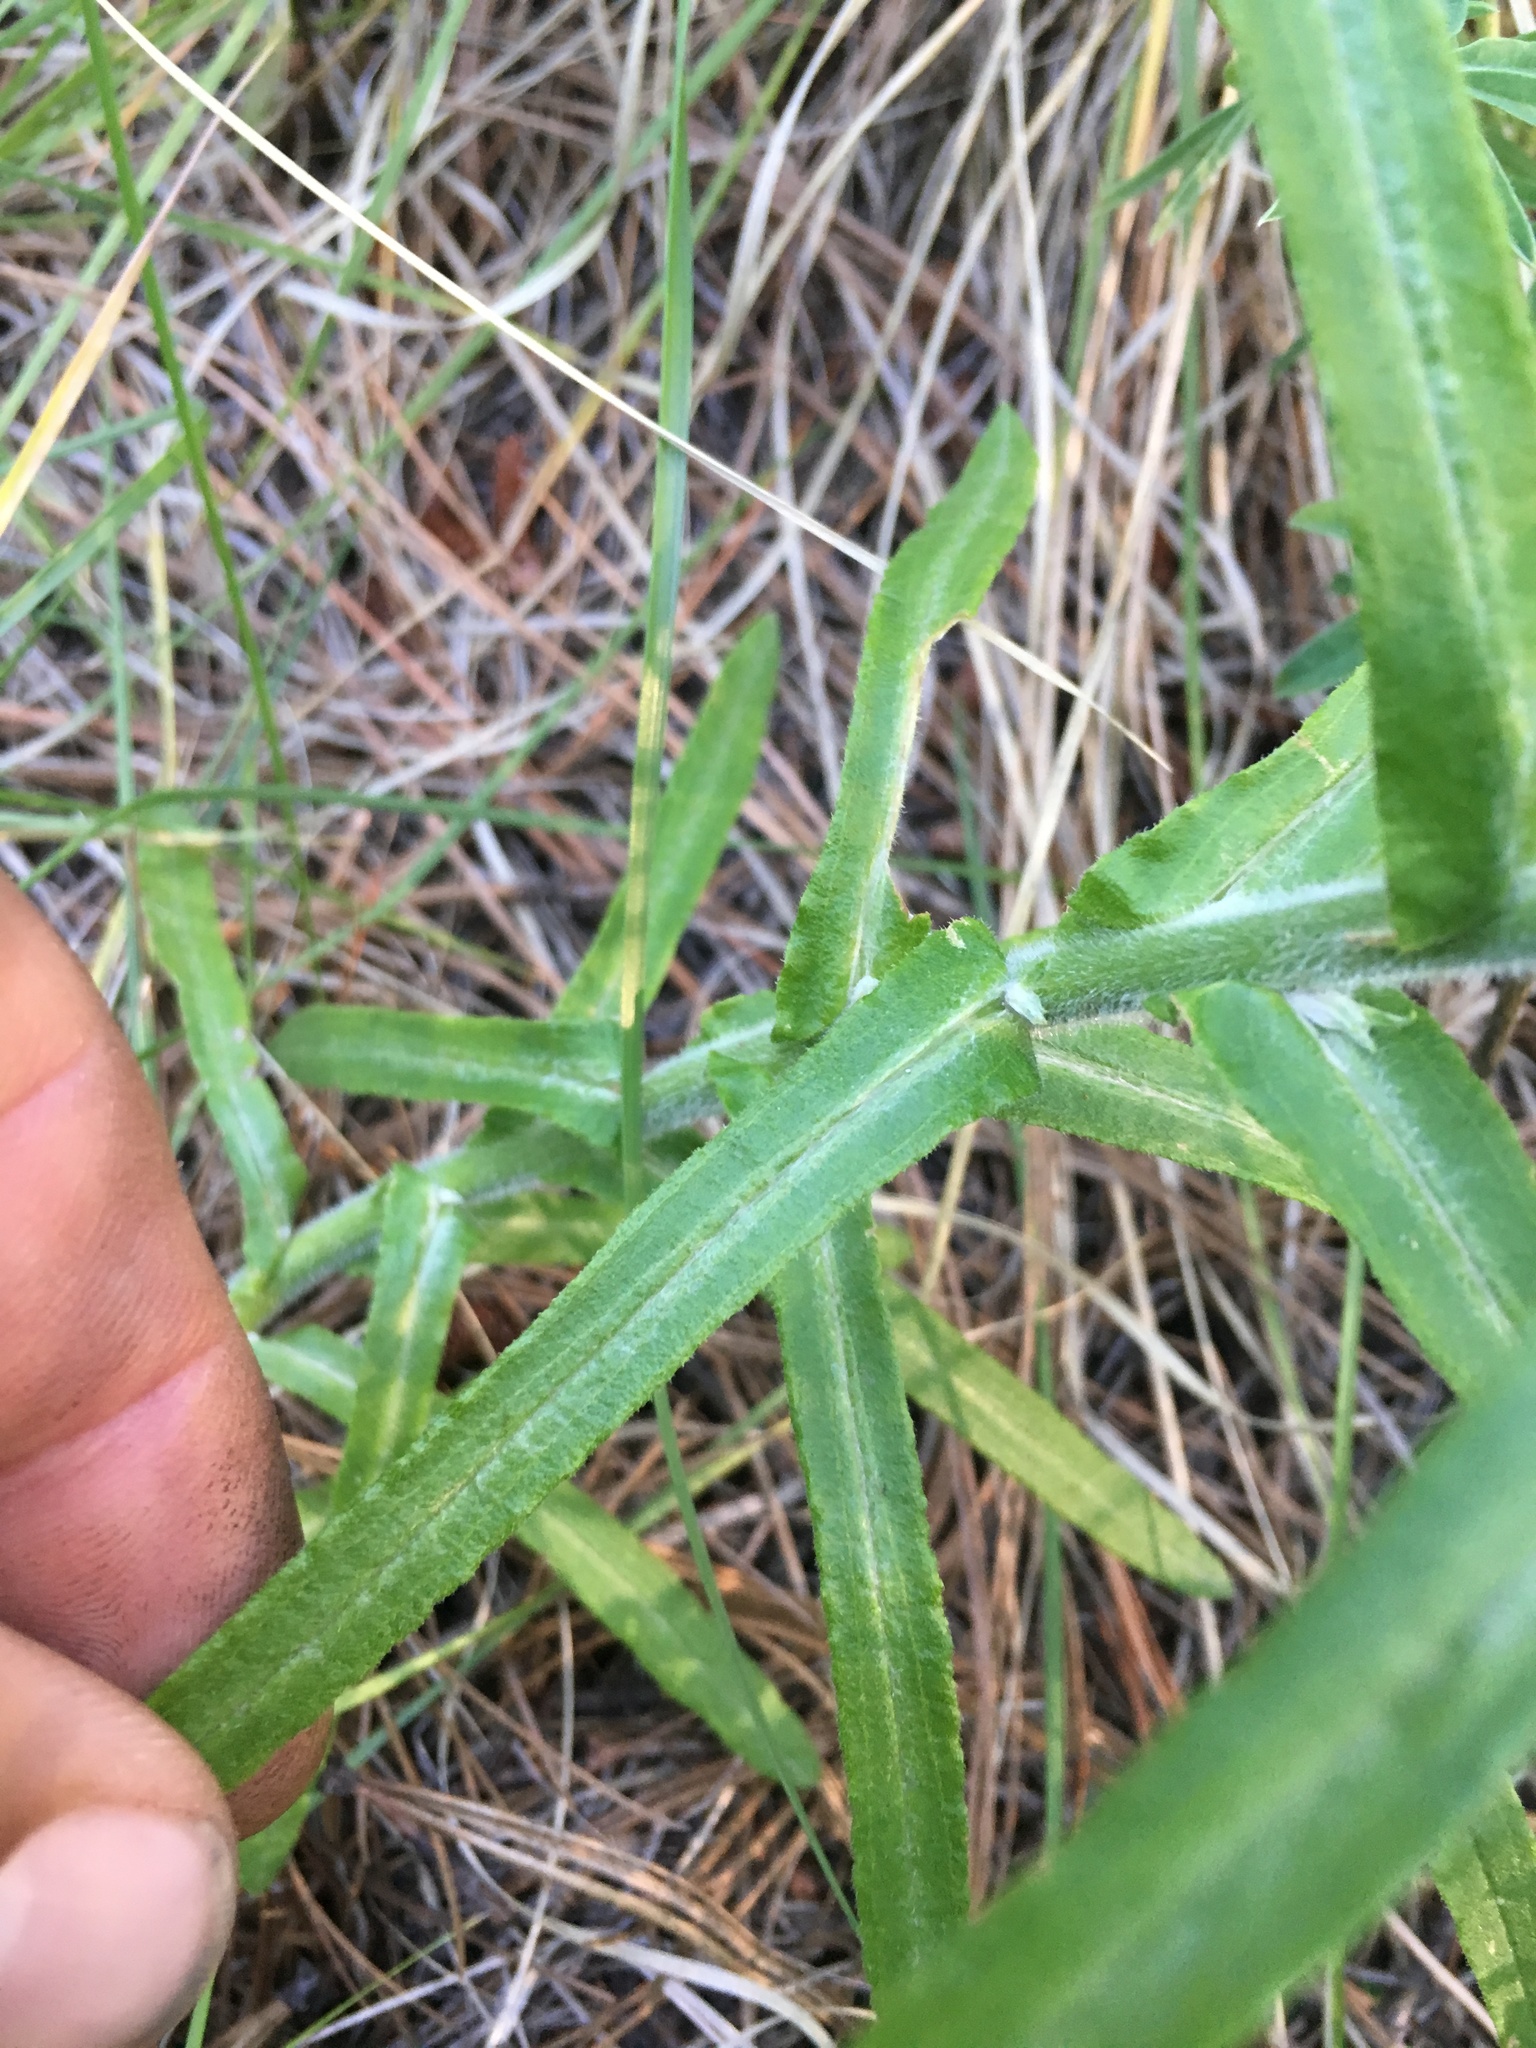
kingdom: Plantae
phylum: Tracheophyta
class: Magnoliopsida
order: Asterales
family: Asteraceae
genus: Pseudognaphalium
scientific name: Pseudognaphalium macounii
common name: Clammy cudweed
